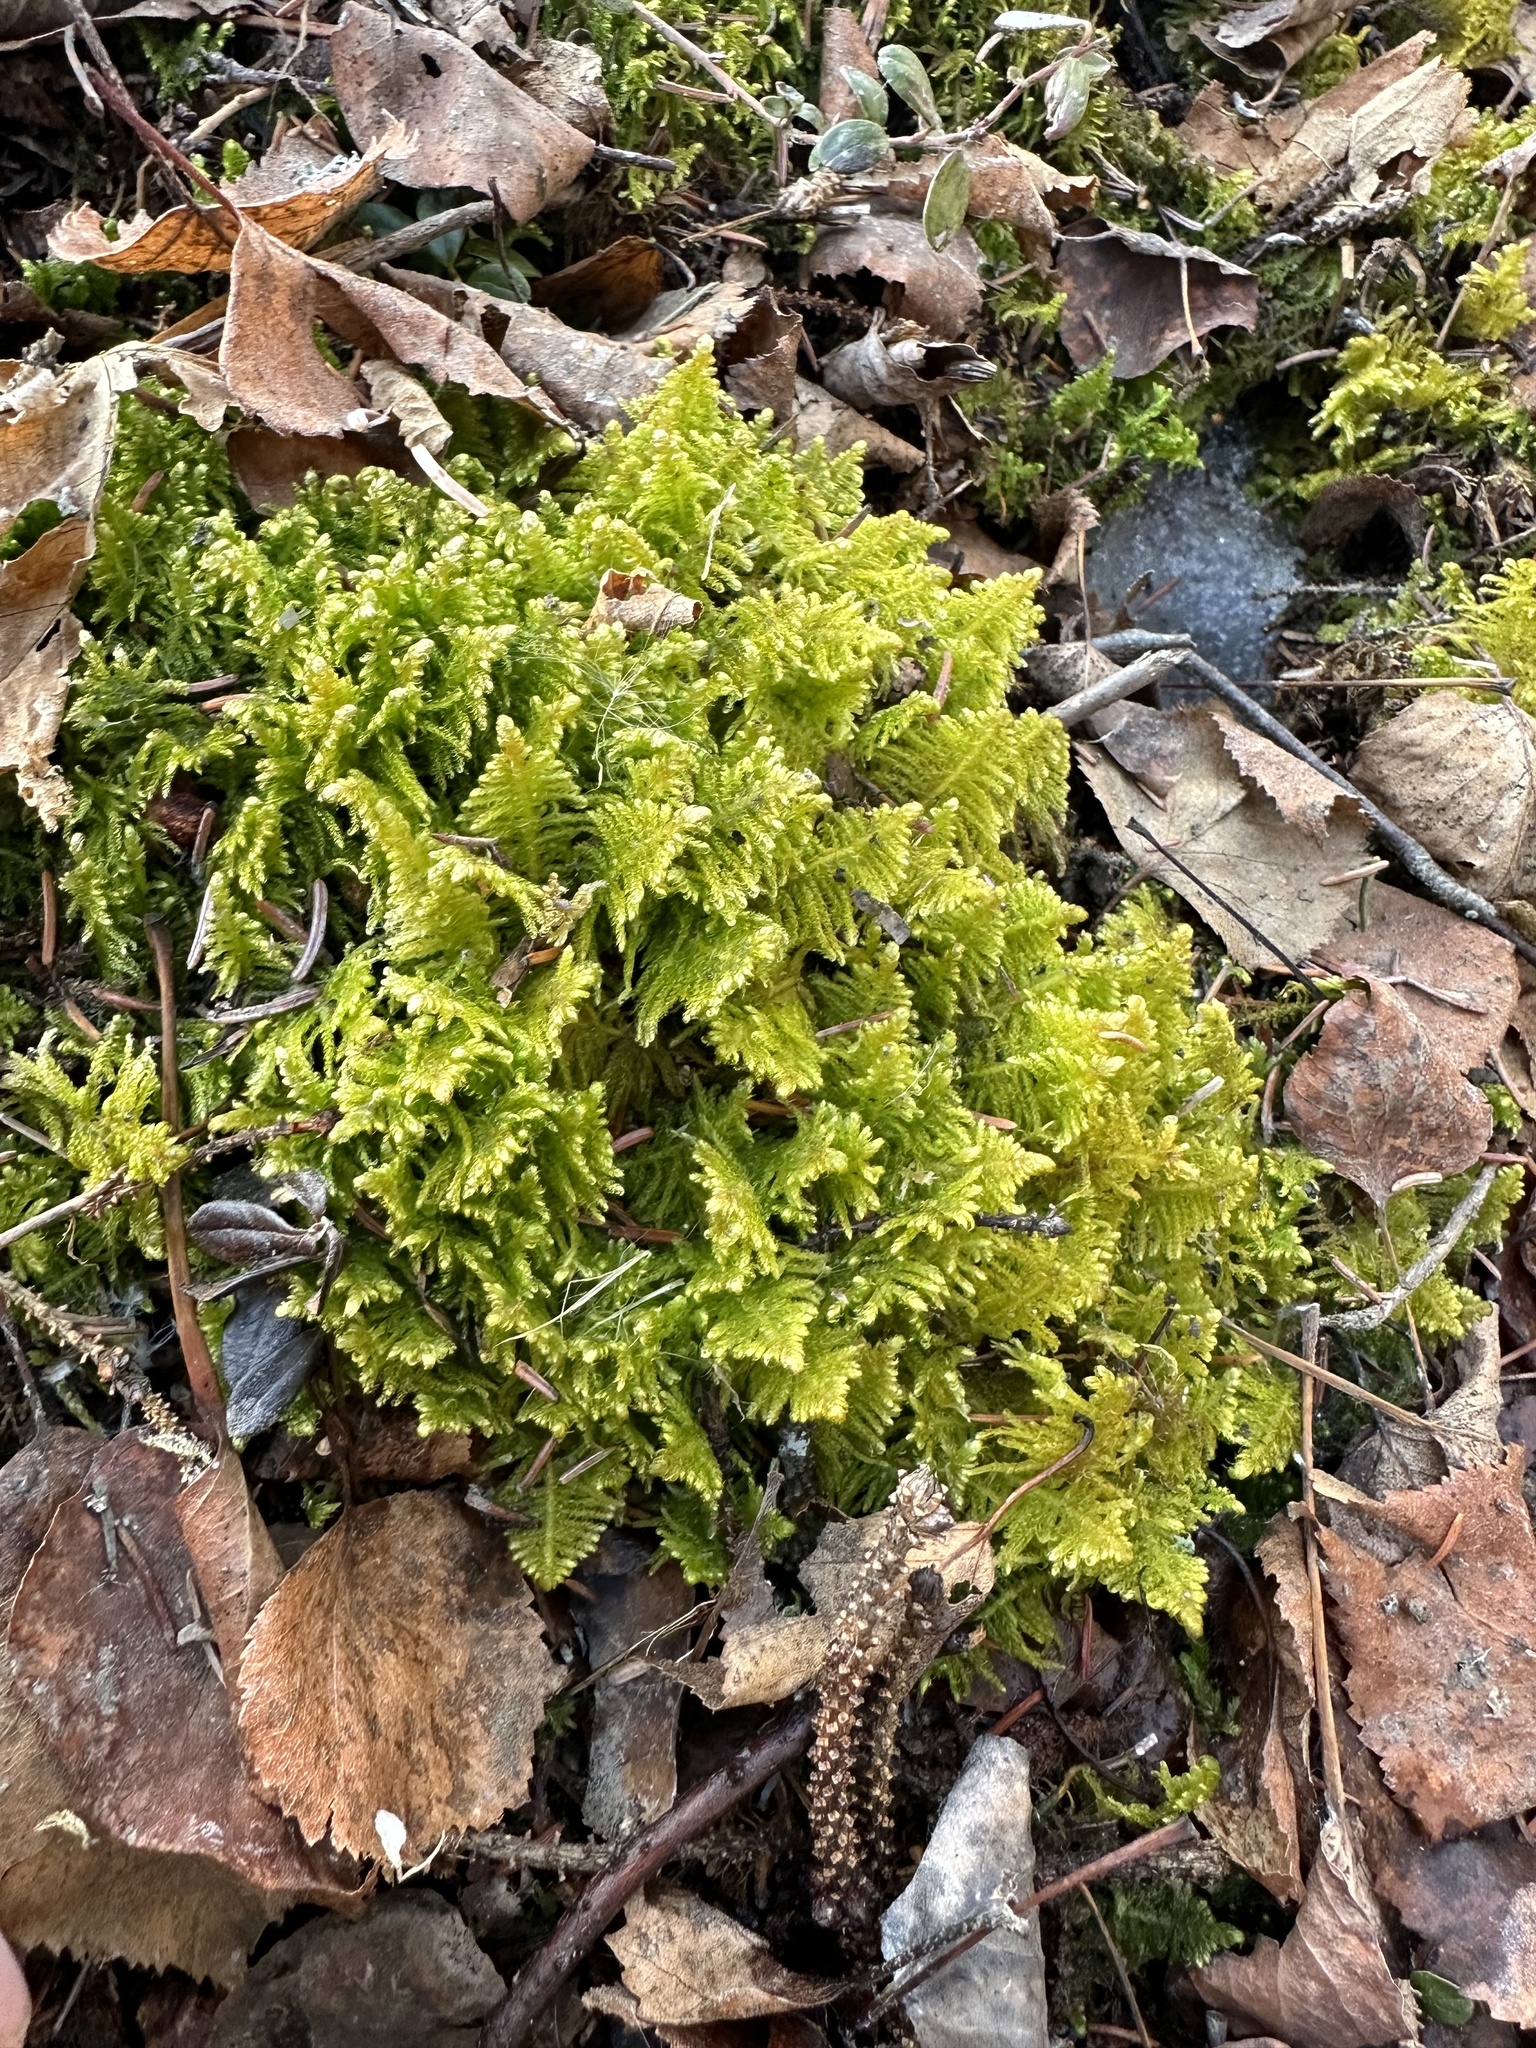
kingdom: Plantae
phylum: Bryophyta
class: Bryopsida
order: Hypnales
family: Pylaisiaceae
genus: Ptilium
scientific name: Ptilium crista-castrensis
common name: Knight's plume moss
